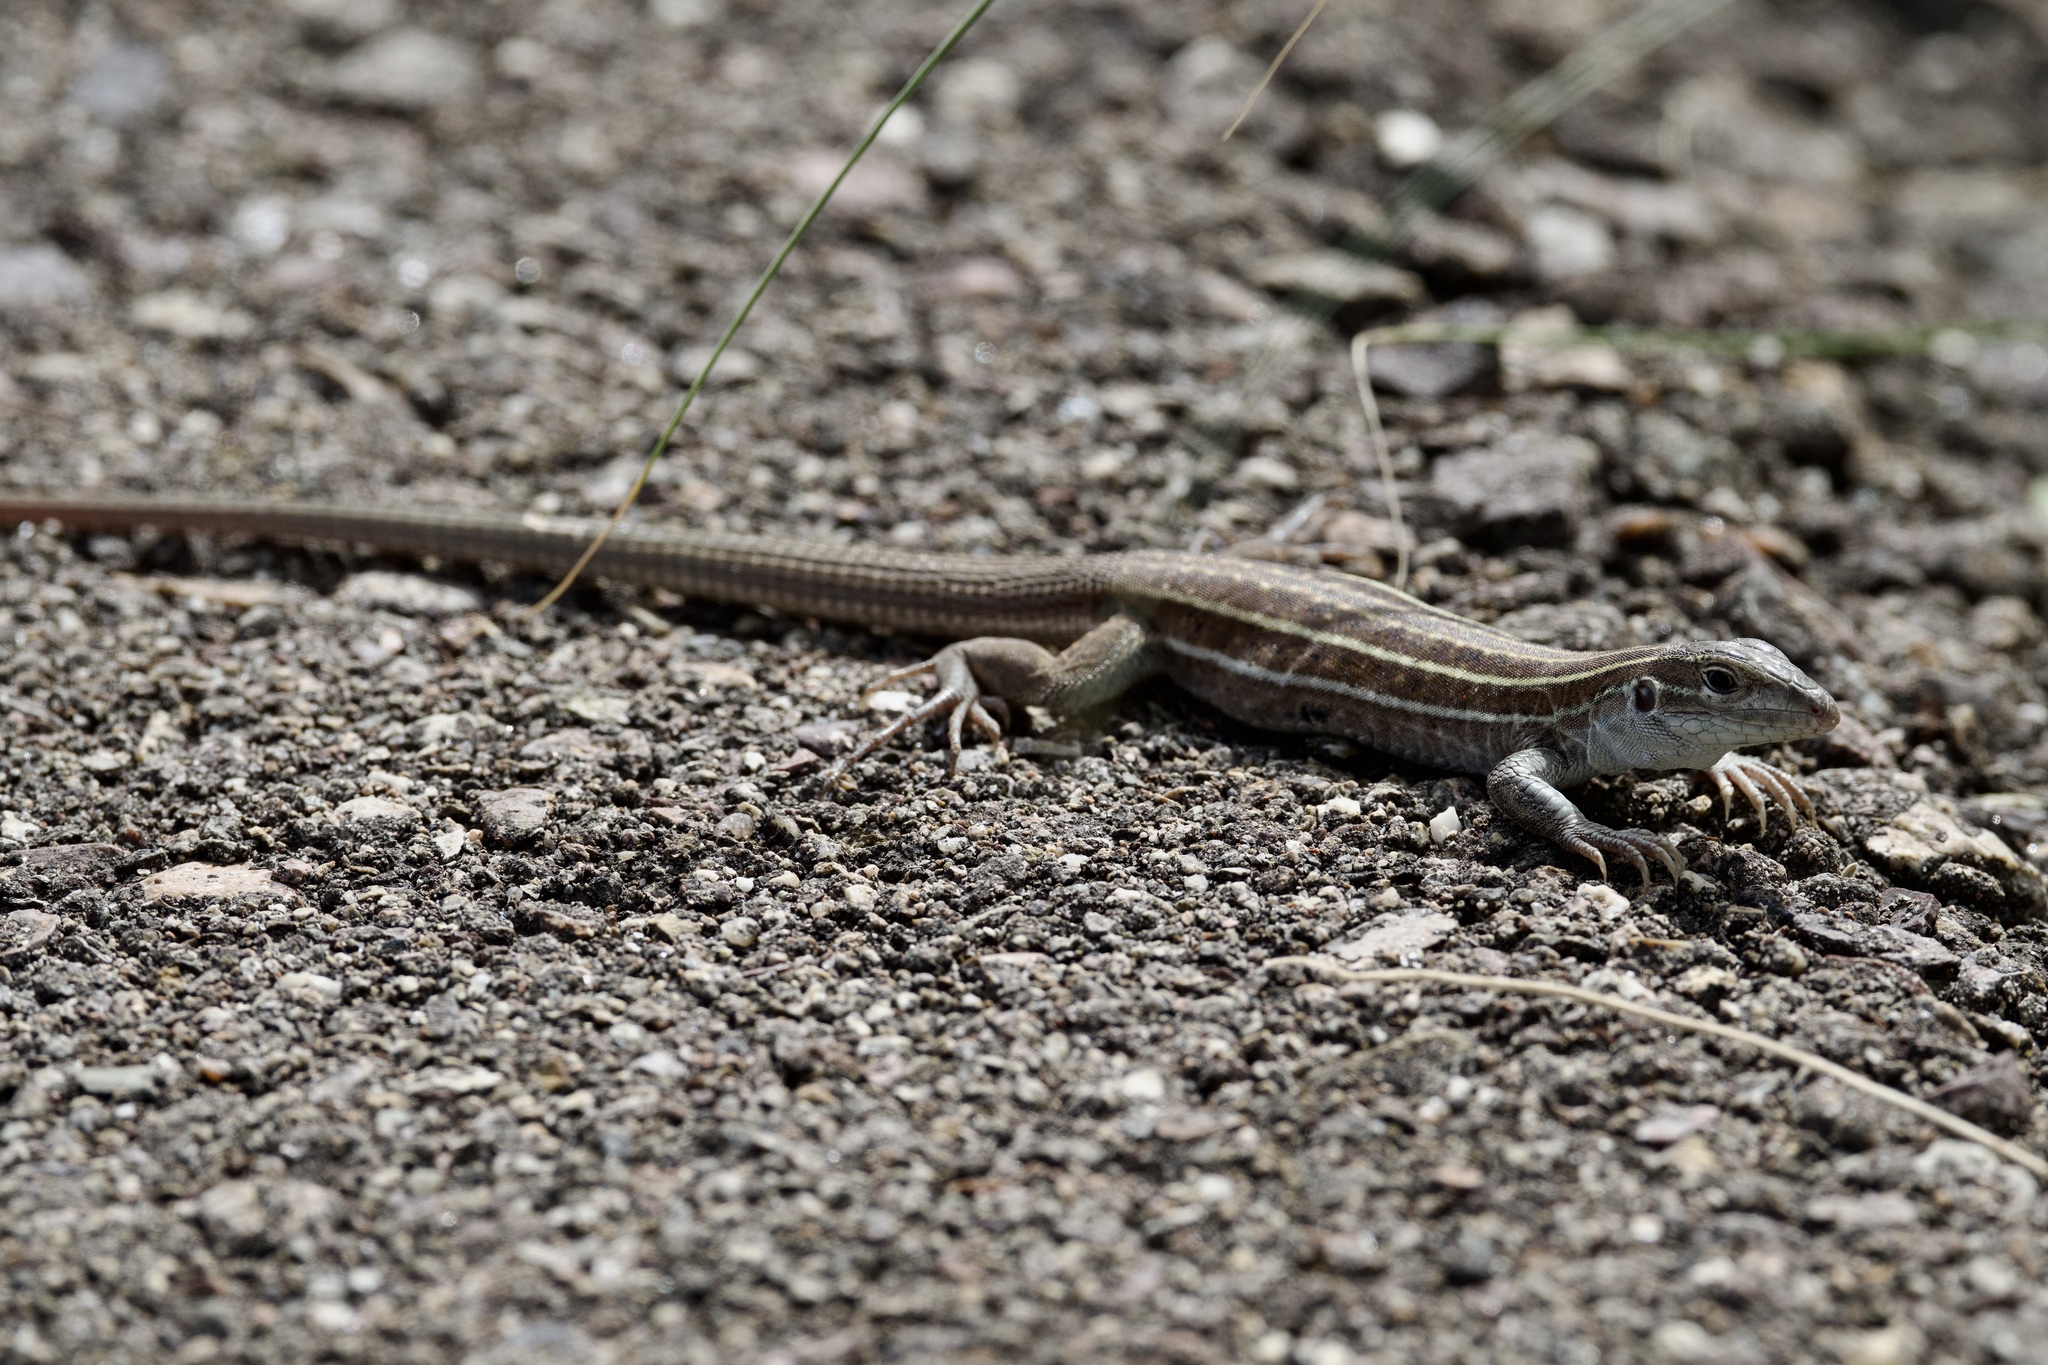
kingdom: Animalia
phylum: Chordata
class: Squamata
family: Teiidae
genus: Aspidoscelis
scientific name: Aspidoscelis sonorae
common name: Sonoran spotted whiptail
